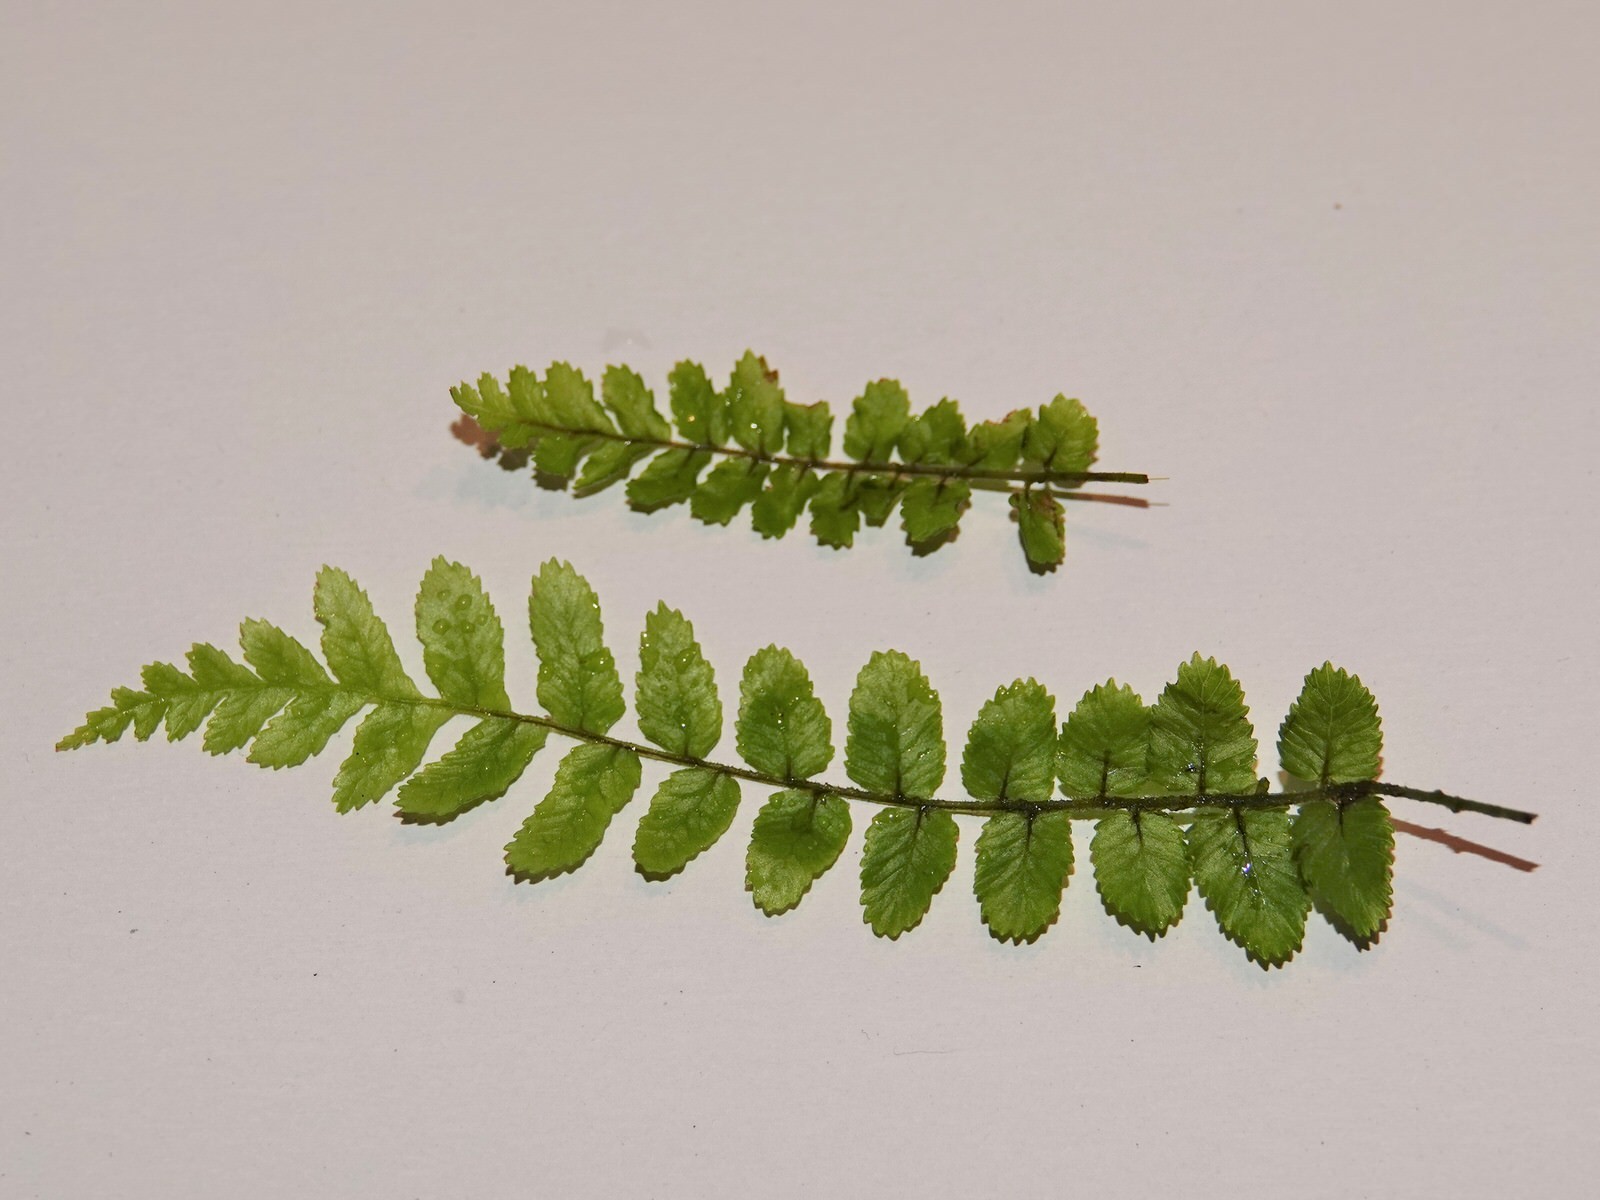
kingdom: Plantae
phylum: Tracheophyta
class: Polypodiopsida
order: Polypodiales
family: Blechnaceae
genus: Icarus
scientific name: Icarus filiformis
